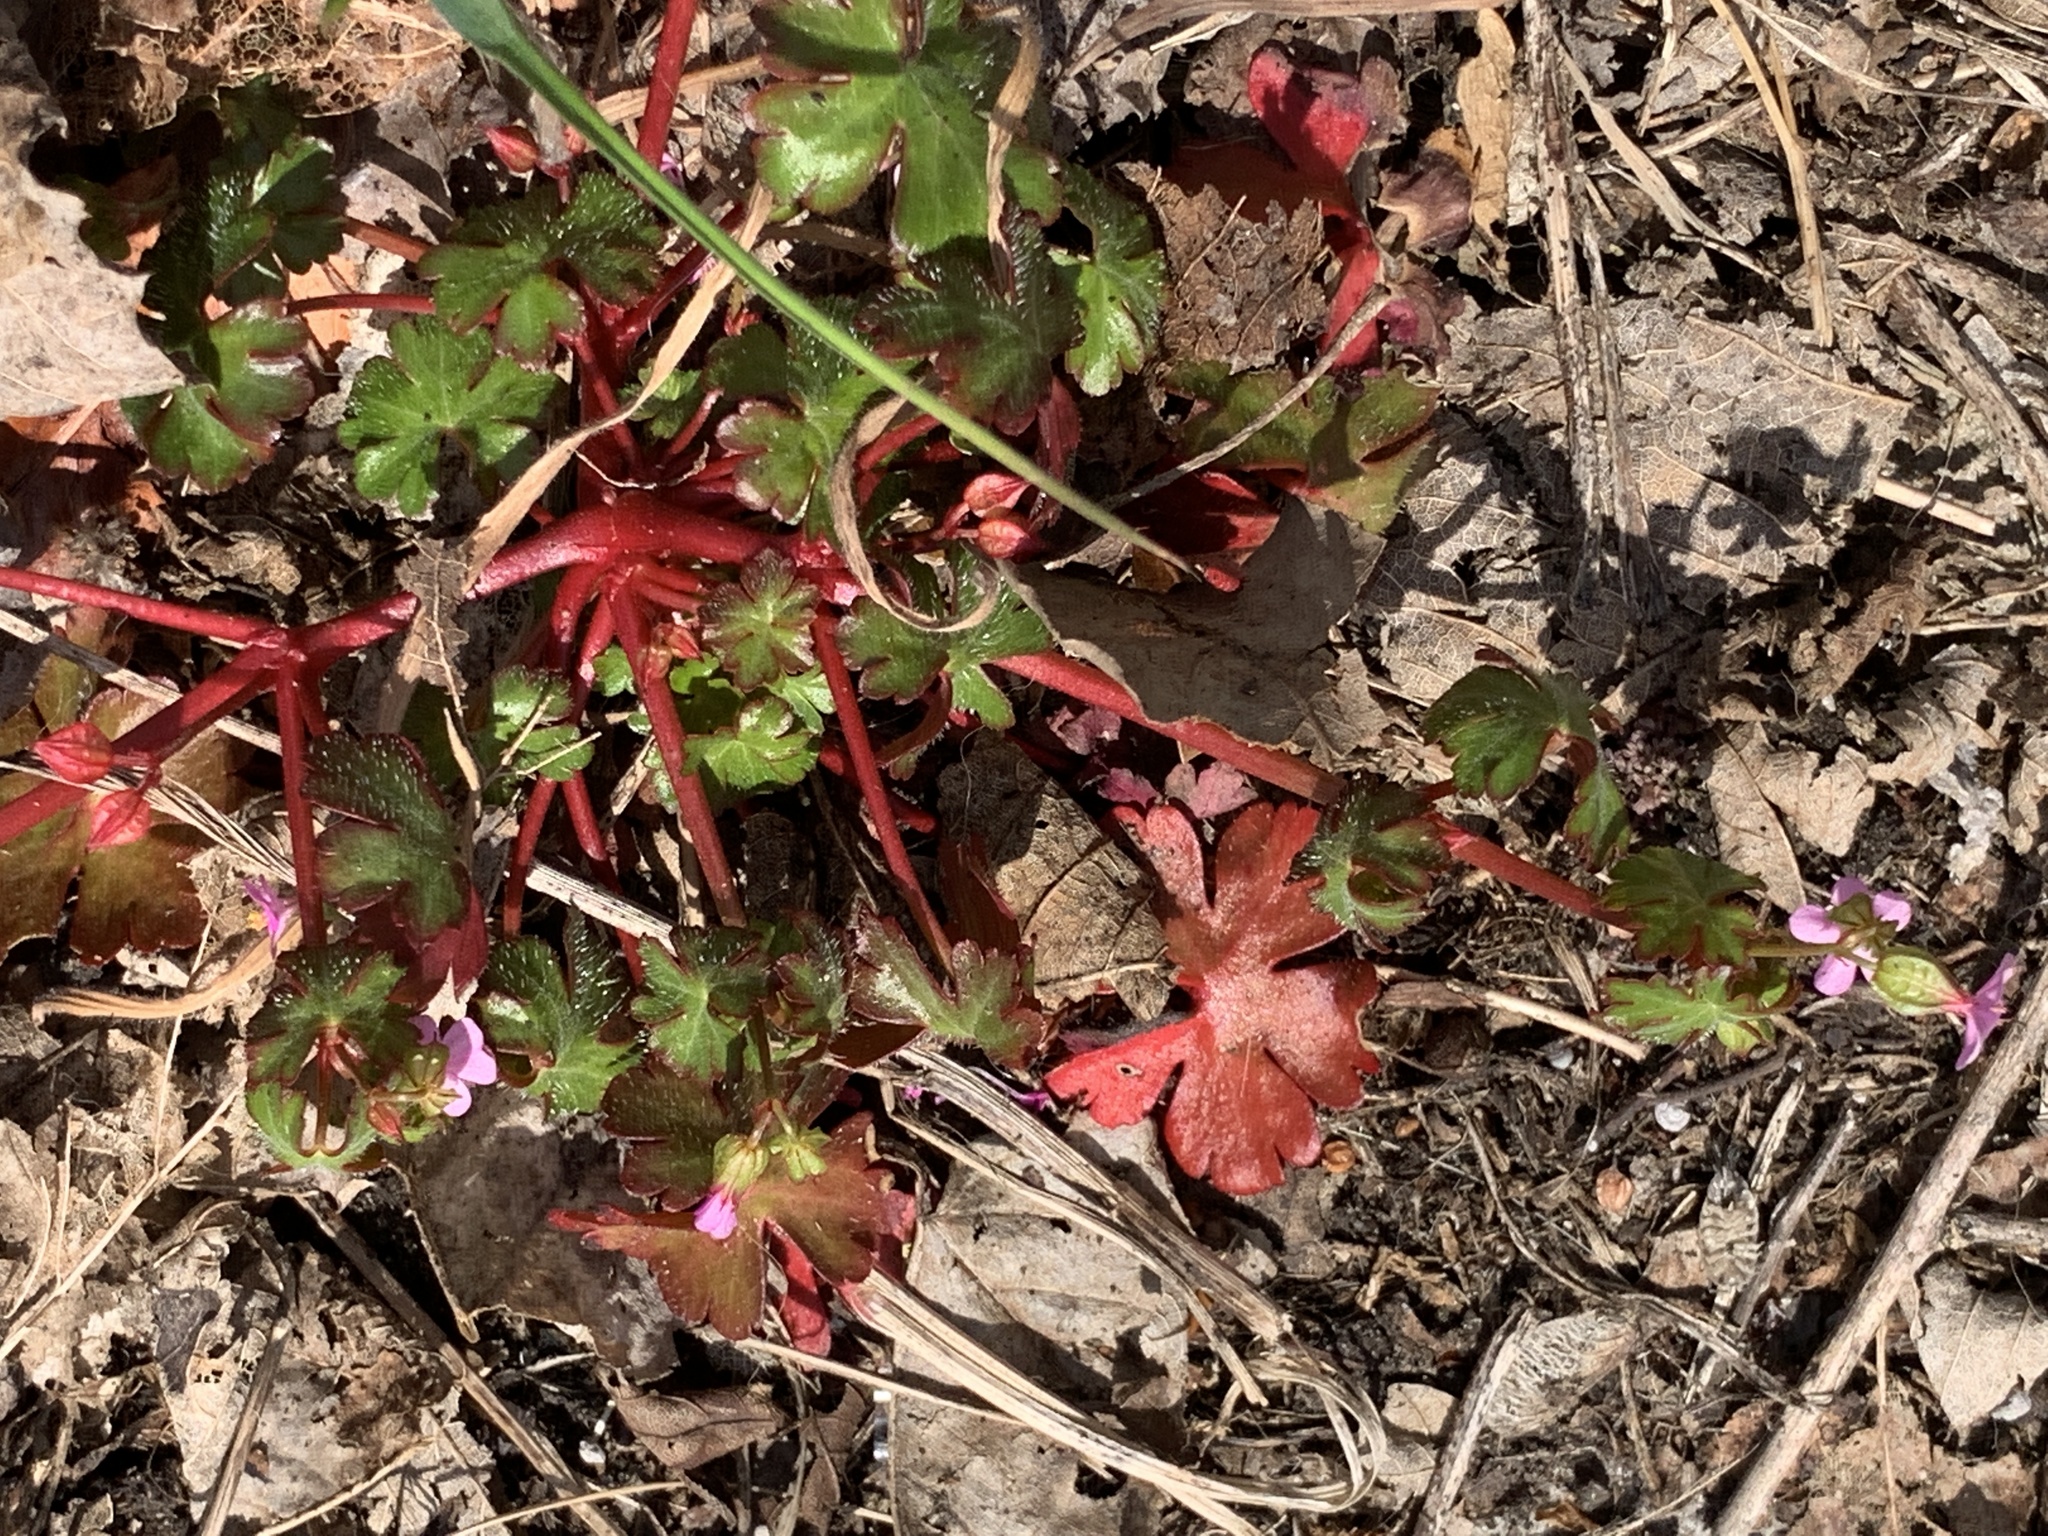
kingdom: Plantae
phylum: Tracheophyta
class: Magnoliopsida
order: Geraniales
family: Geraniaceae
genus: Geranium
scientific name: Geranium lucidum
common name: Shining crane's-bill
